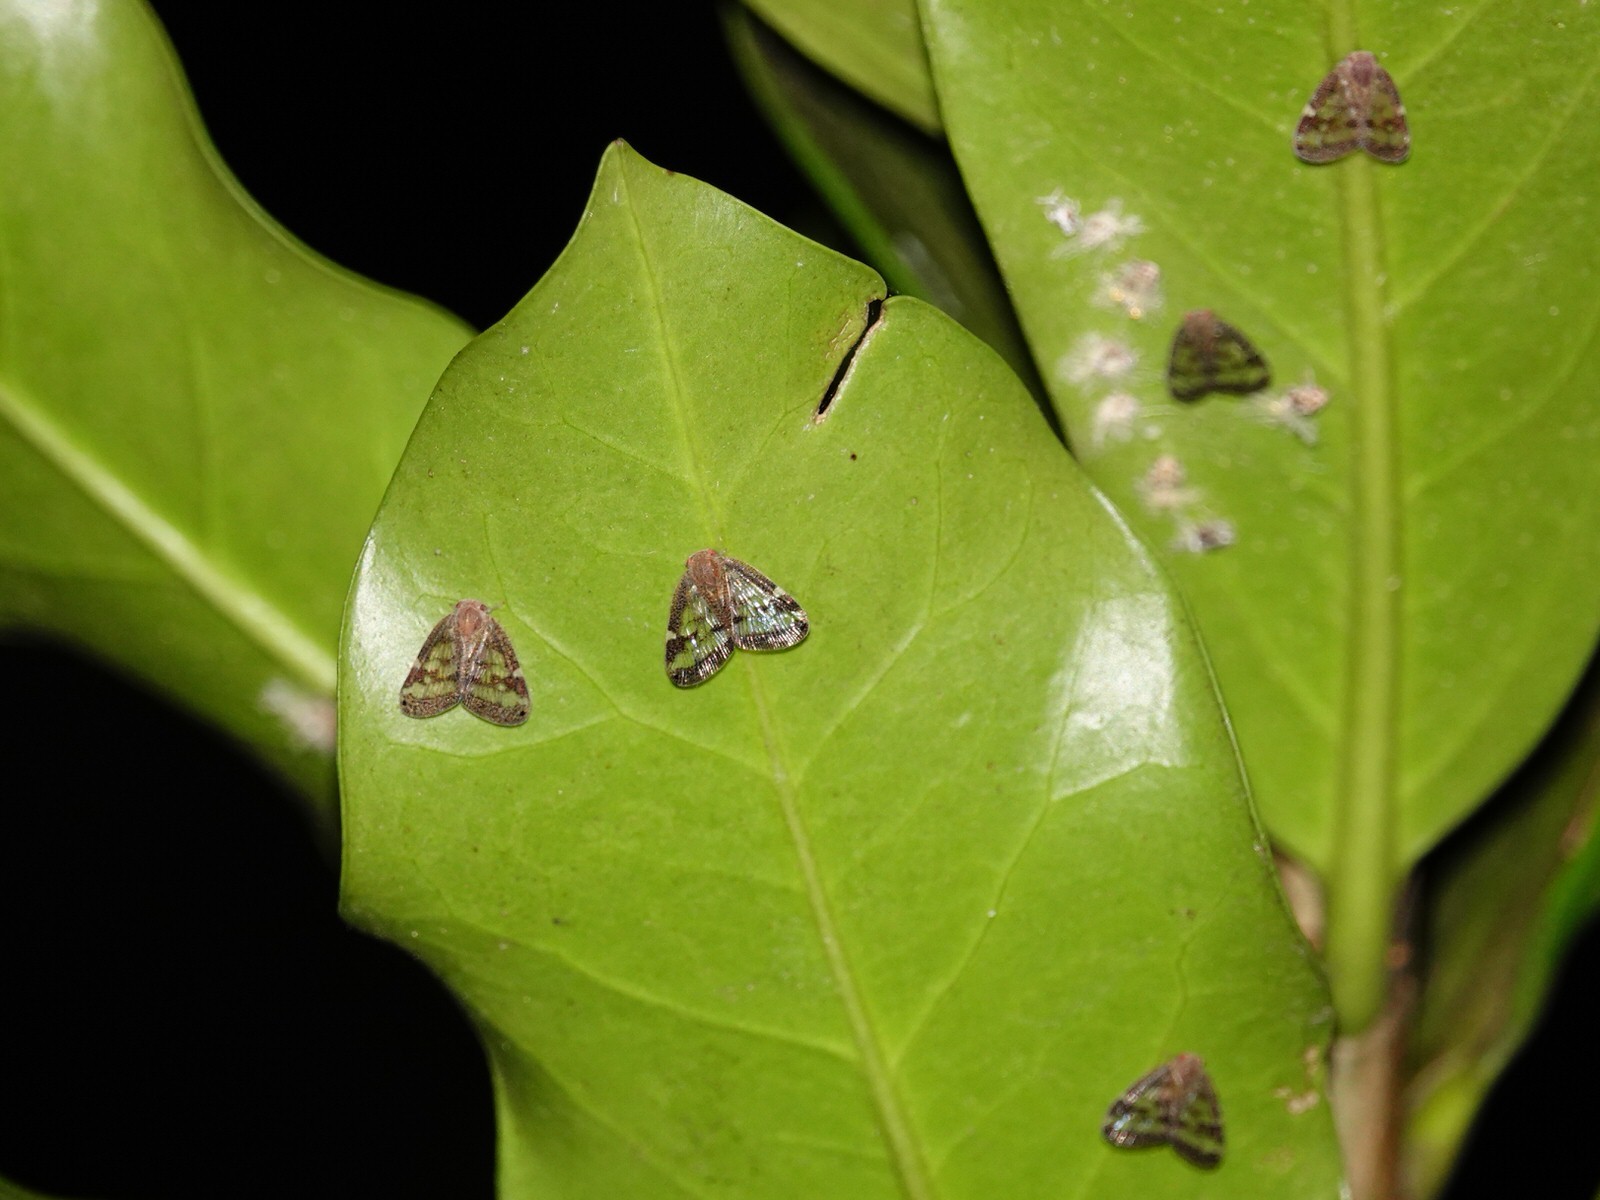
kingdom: Animalia
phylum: Arthropoda
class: Insecta
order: Hemiptera
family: Ricaniidae
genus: Scolypopa
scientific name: Scolypopa australis
